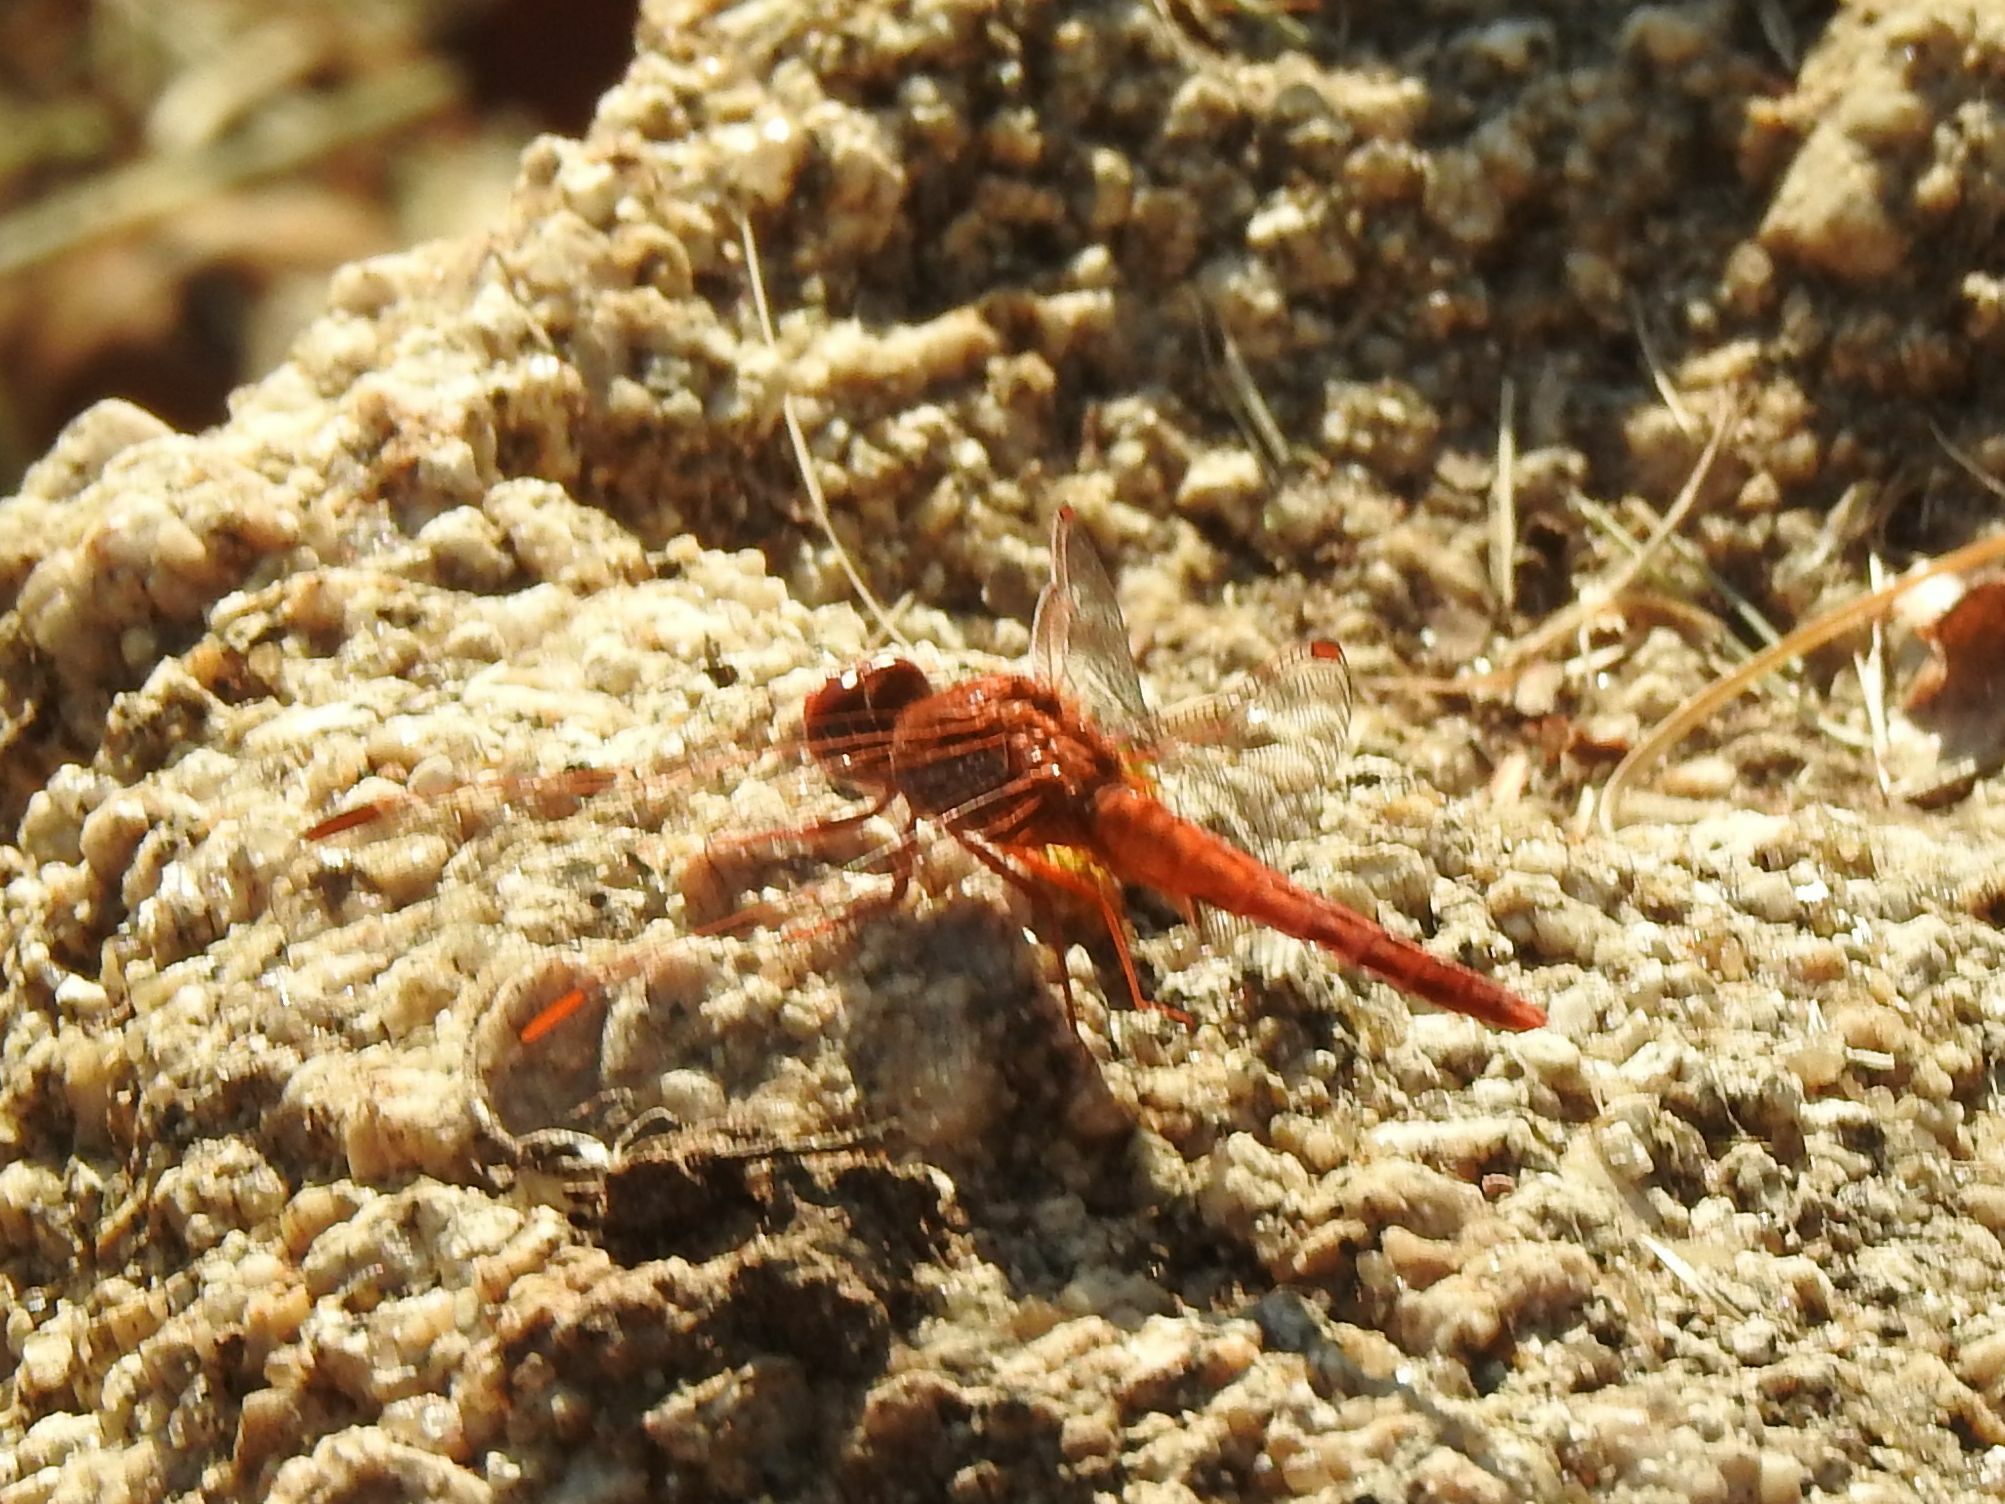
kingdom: Animalia
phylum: Arthropoda
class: Insecta
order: Odonata
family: Libellulidae
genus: Crocothemis
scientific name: Crocothemis sanguinolenta
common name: Little scarlet
